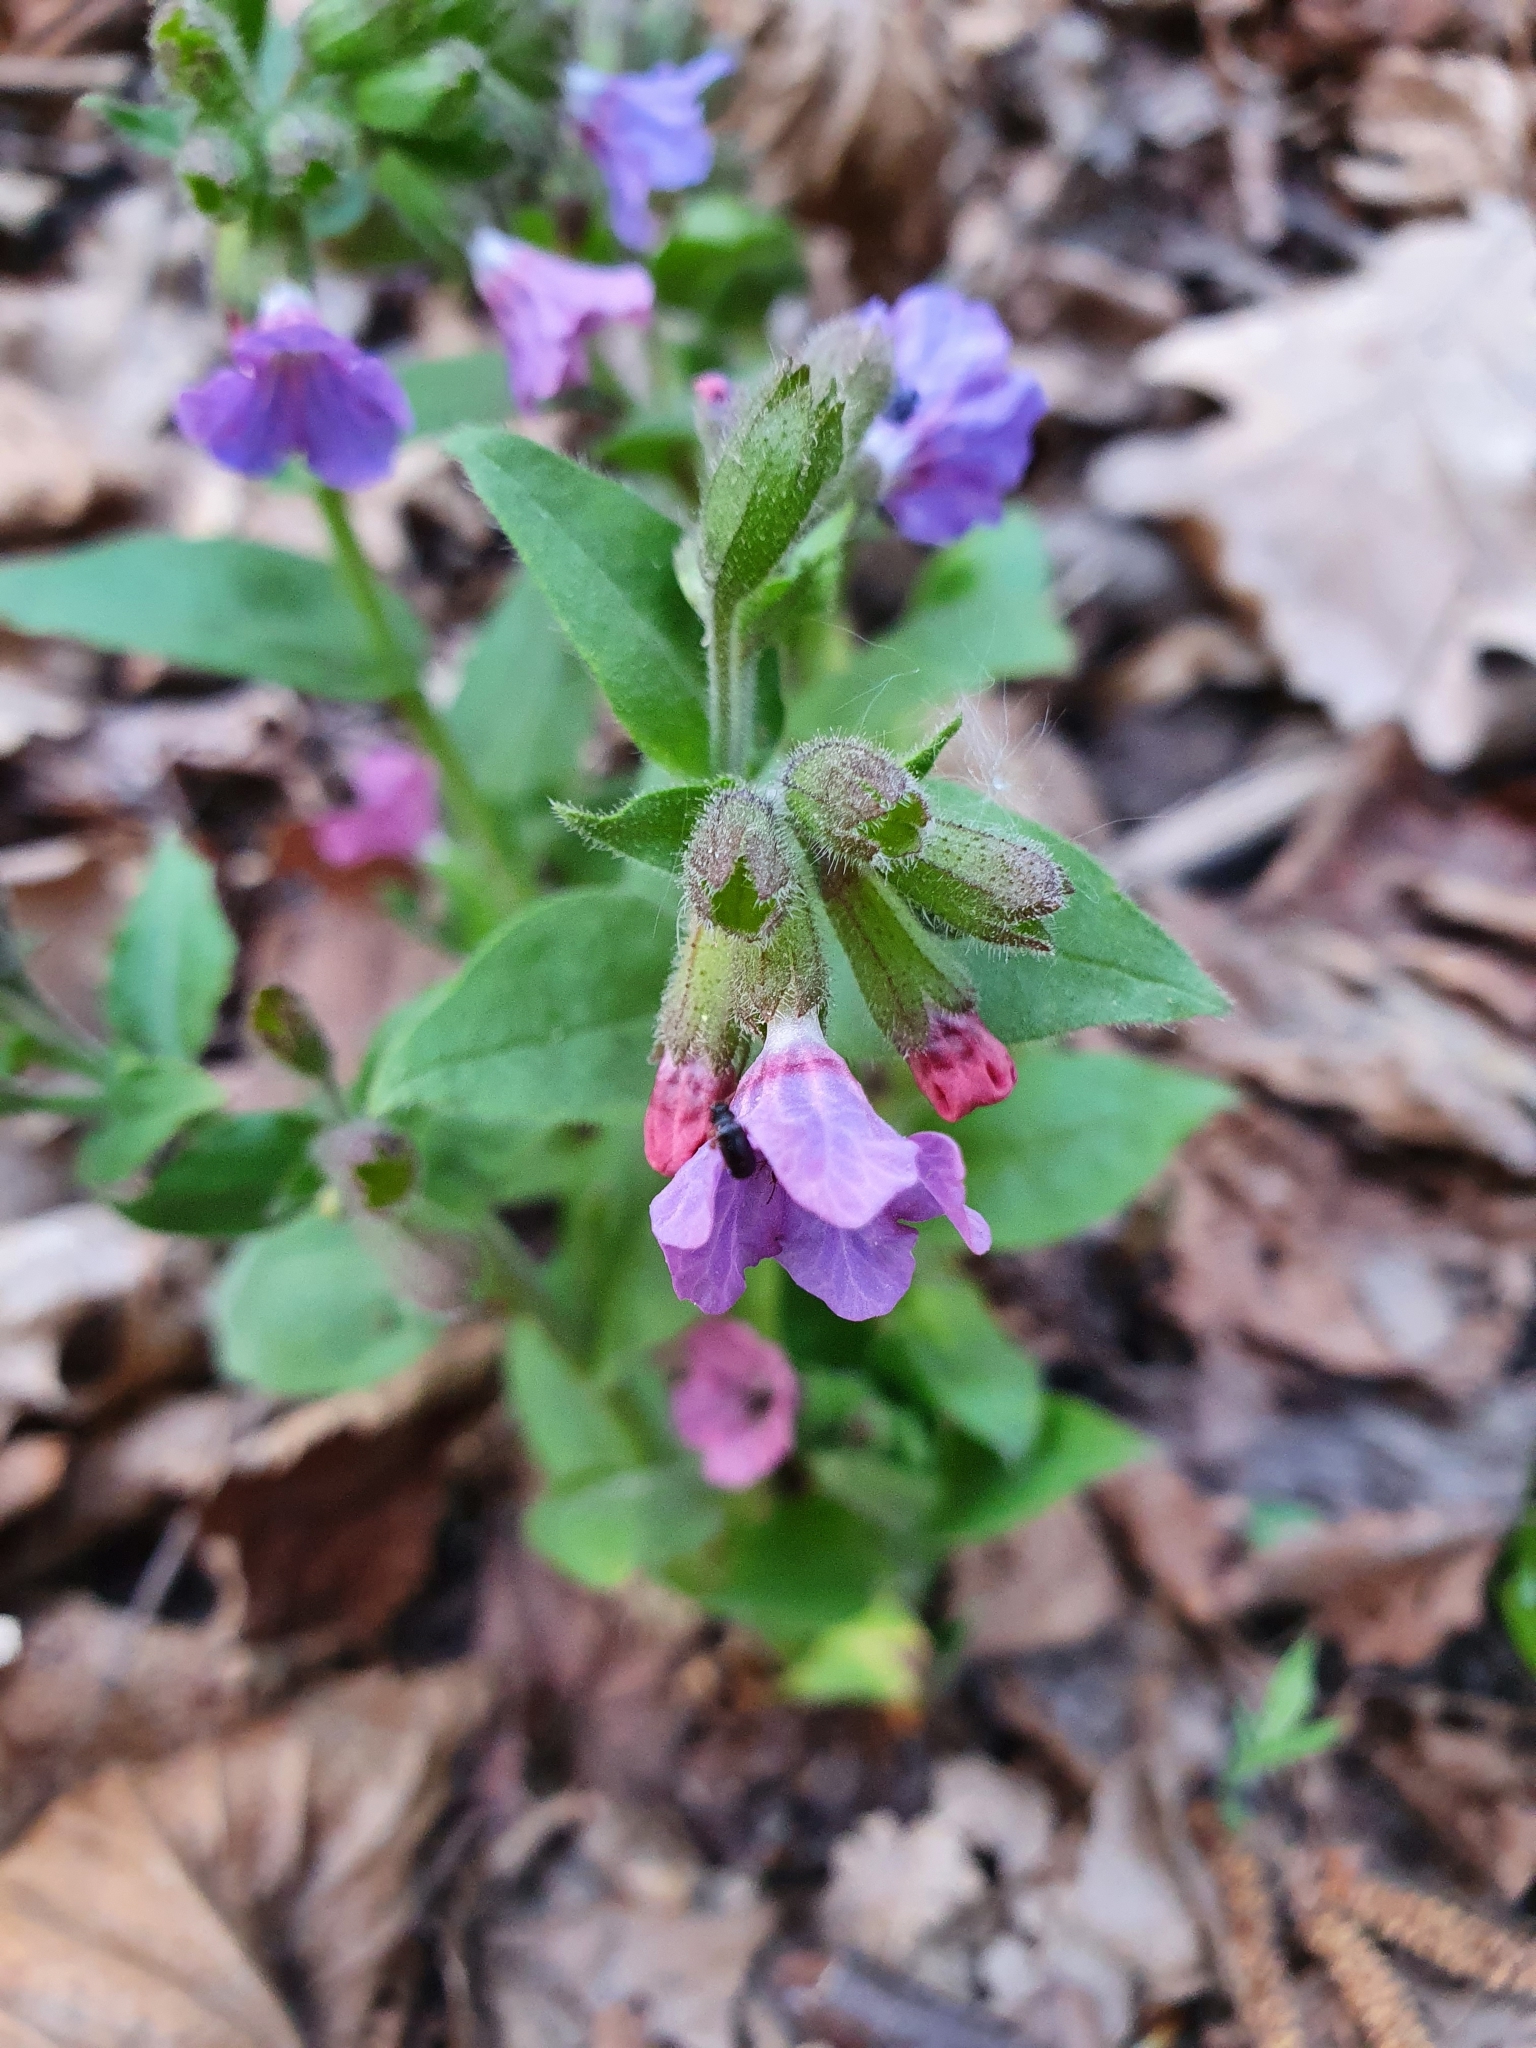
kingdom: Plantae
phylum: Tracheophyta
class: Magnoliopsida
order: Boraginales
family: Boraginaceae
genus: Pulmonaria
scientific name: Pulmonaria obscura
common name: Suffolk lungwort
